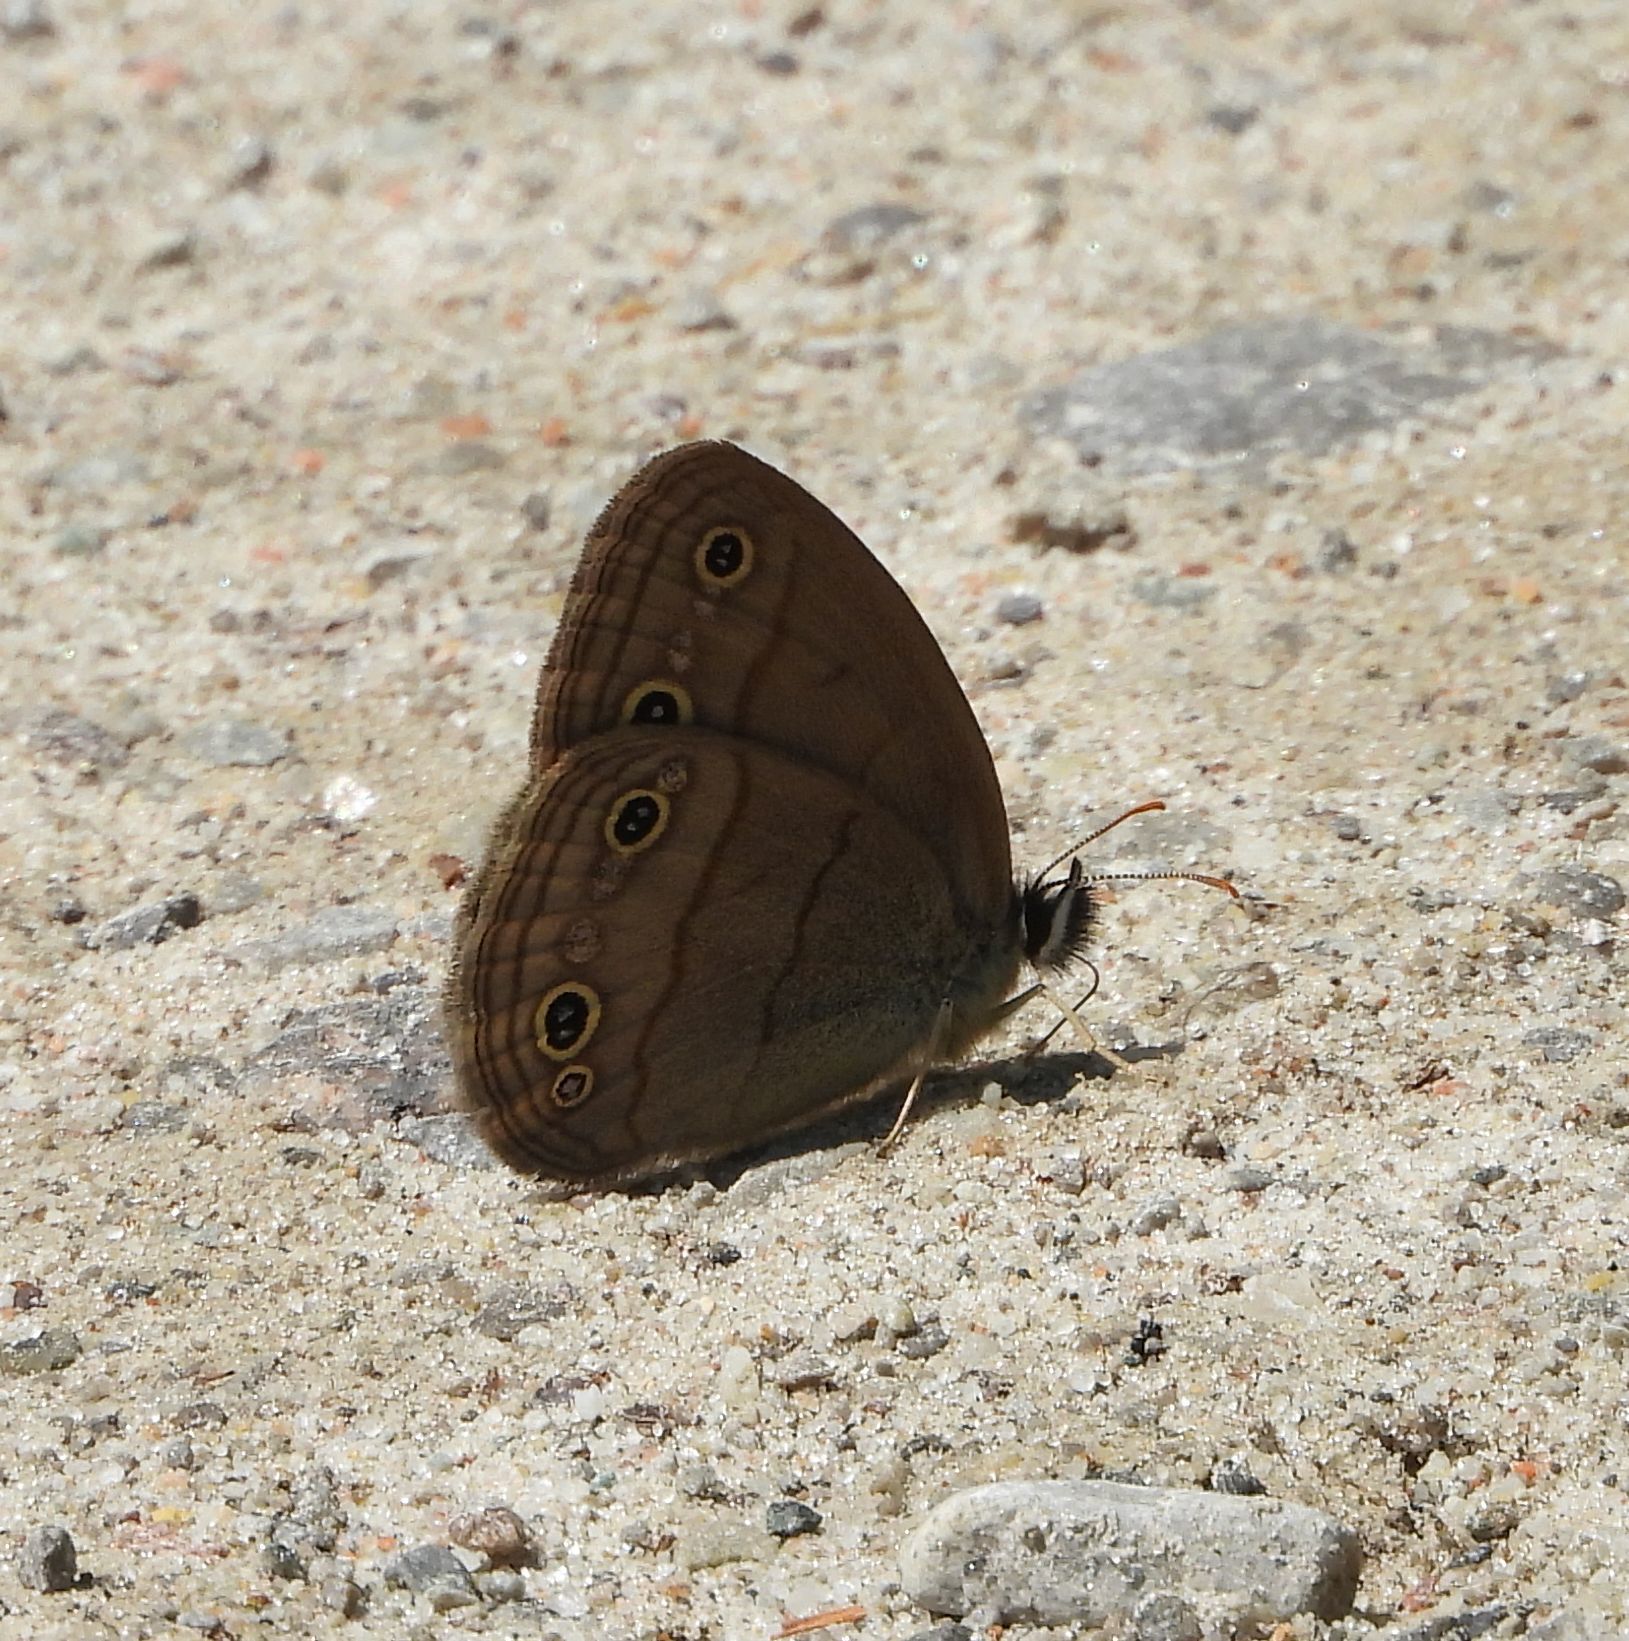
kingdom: Animalia
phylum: Arthropoda
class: Insecta
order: Lepidoptera
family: Nymphalidae
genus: Euptychia
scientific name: Euptychia cymela
